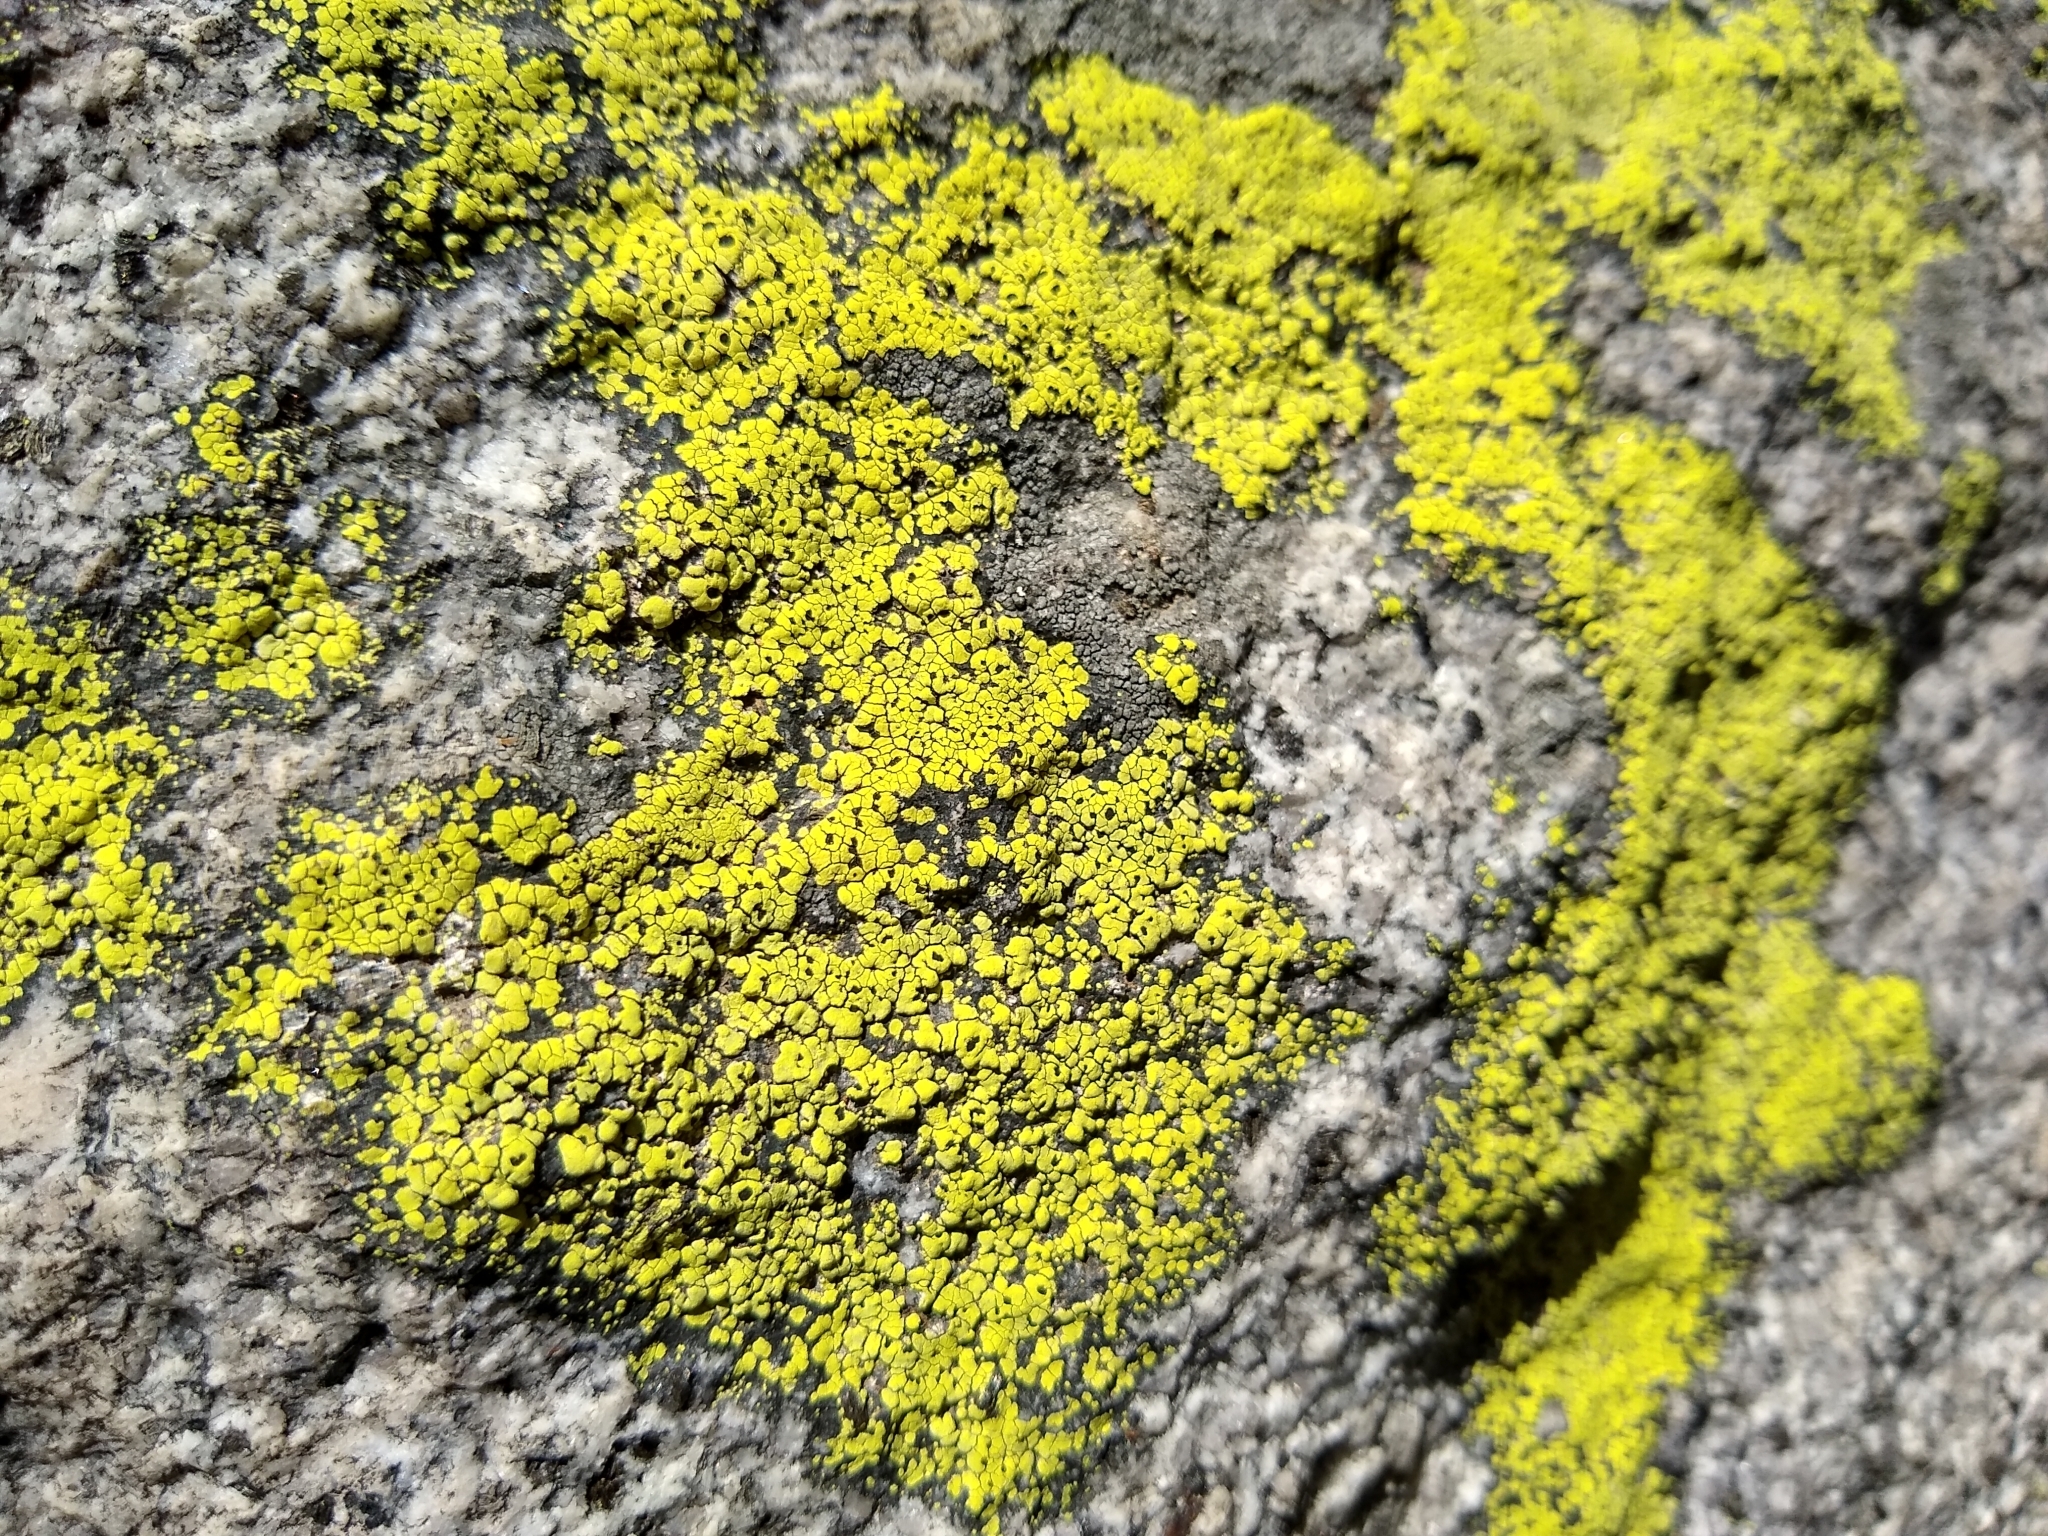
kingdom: Fungi
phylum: Ascomycota
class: Lecanoromycetes
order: Rhizocarpales
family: Rhizocarpaceae
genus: Rhizocarpon
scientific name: Rhizocarpon geographicum
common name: Yellow map lichen
